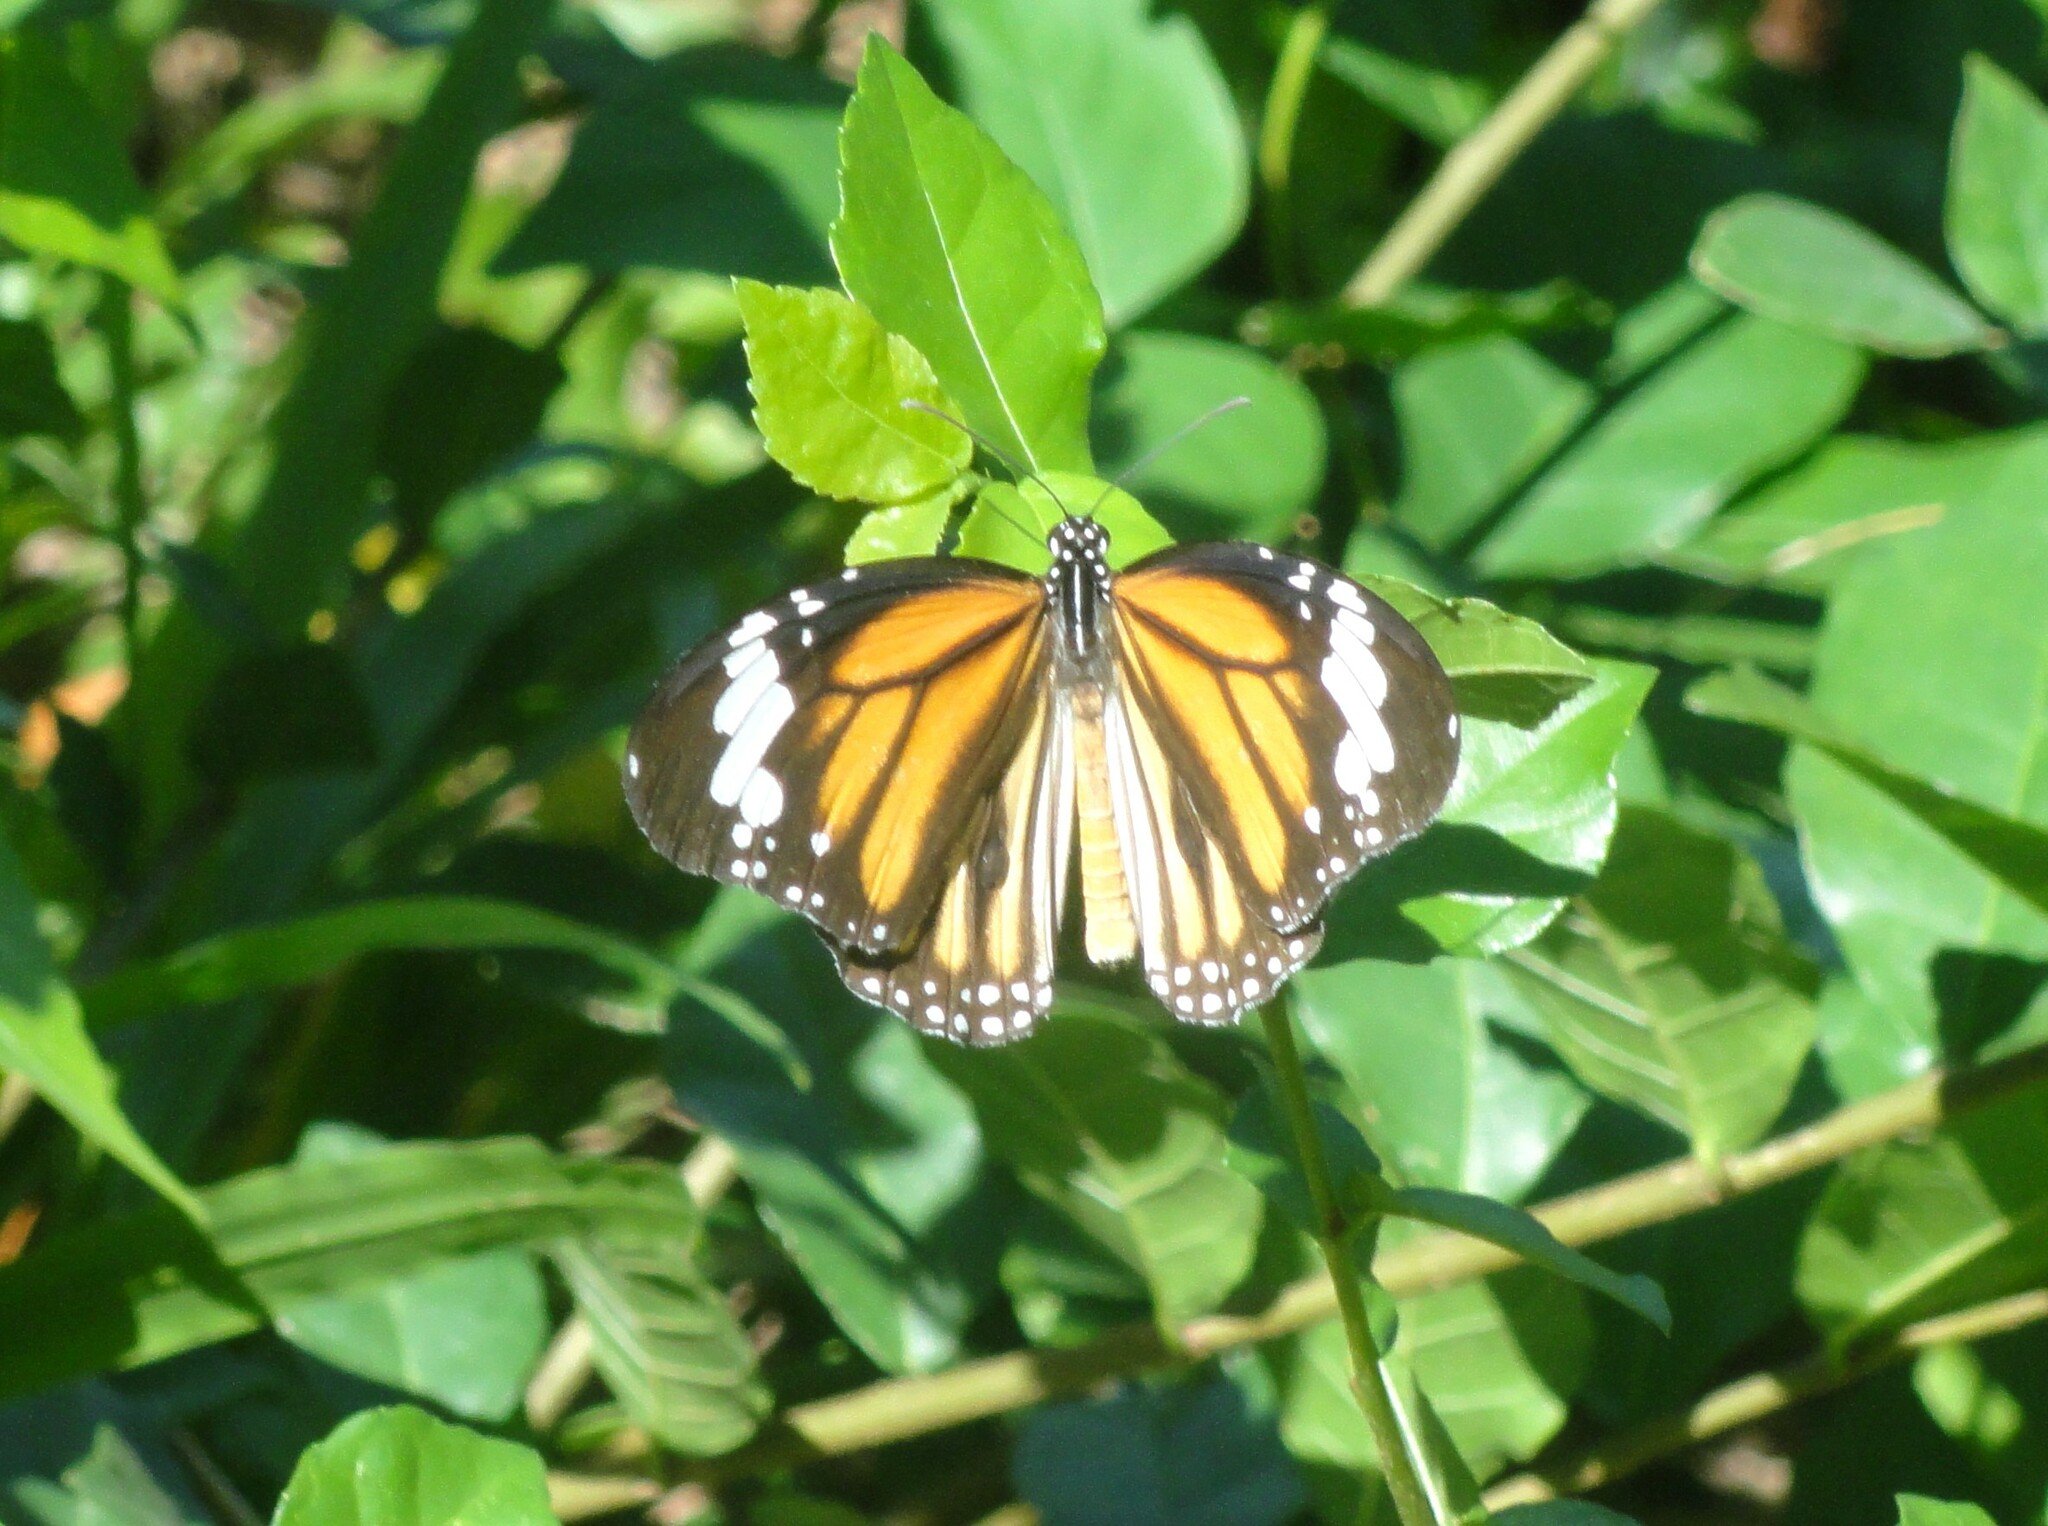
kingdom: Animalia
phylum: Arthropoda
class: Insecta
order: Lepidoptera
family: Nymphalidae
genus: Danaus
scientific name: Danaus genutia
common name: Common tiger butterfly
